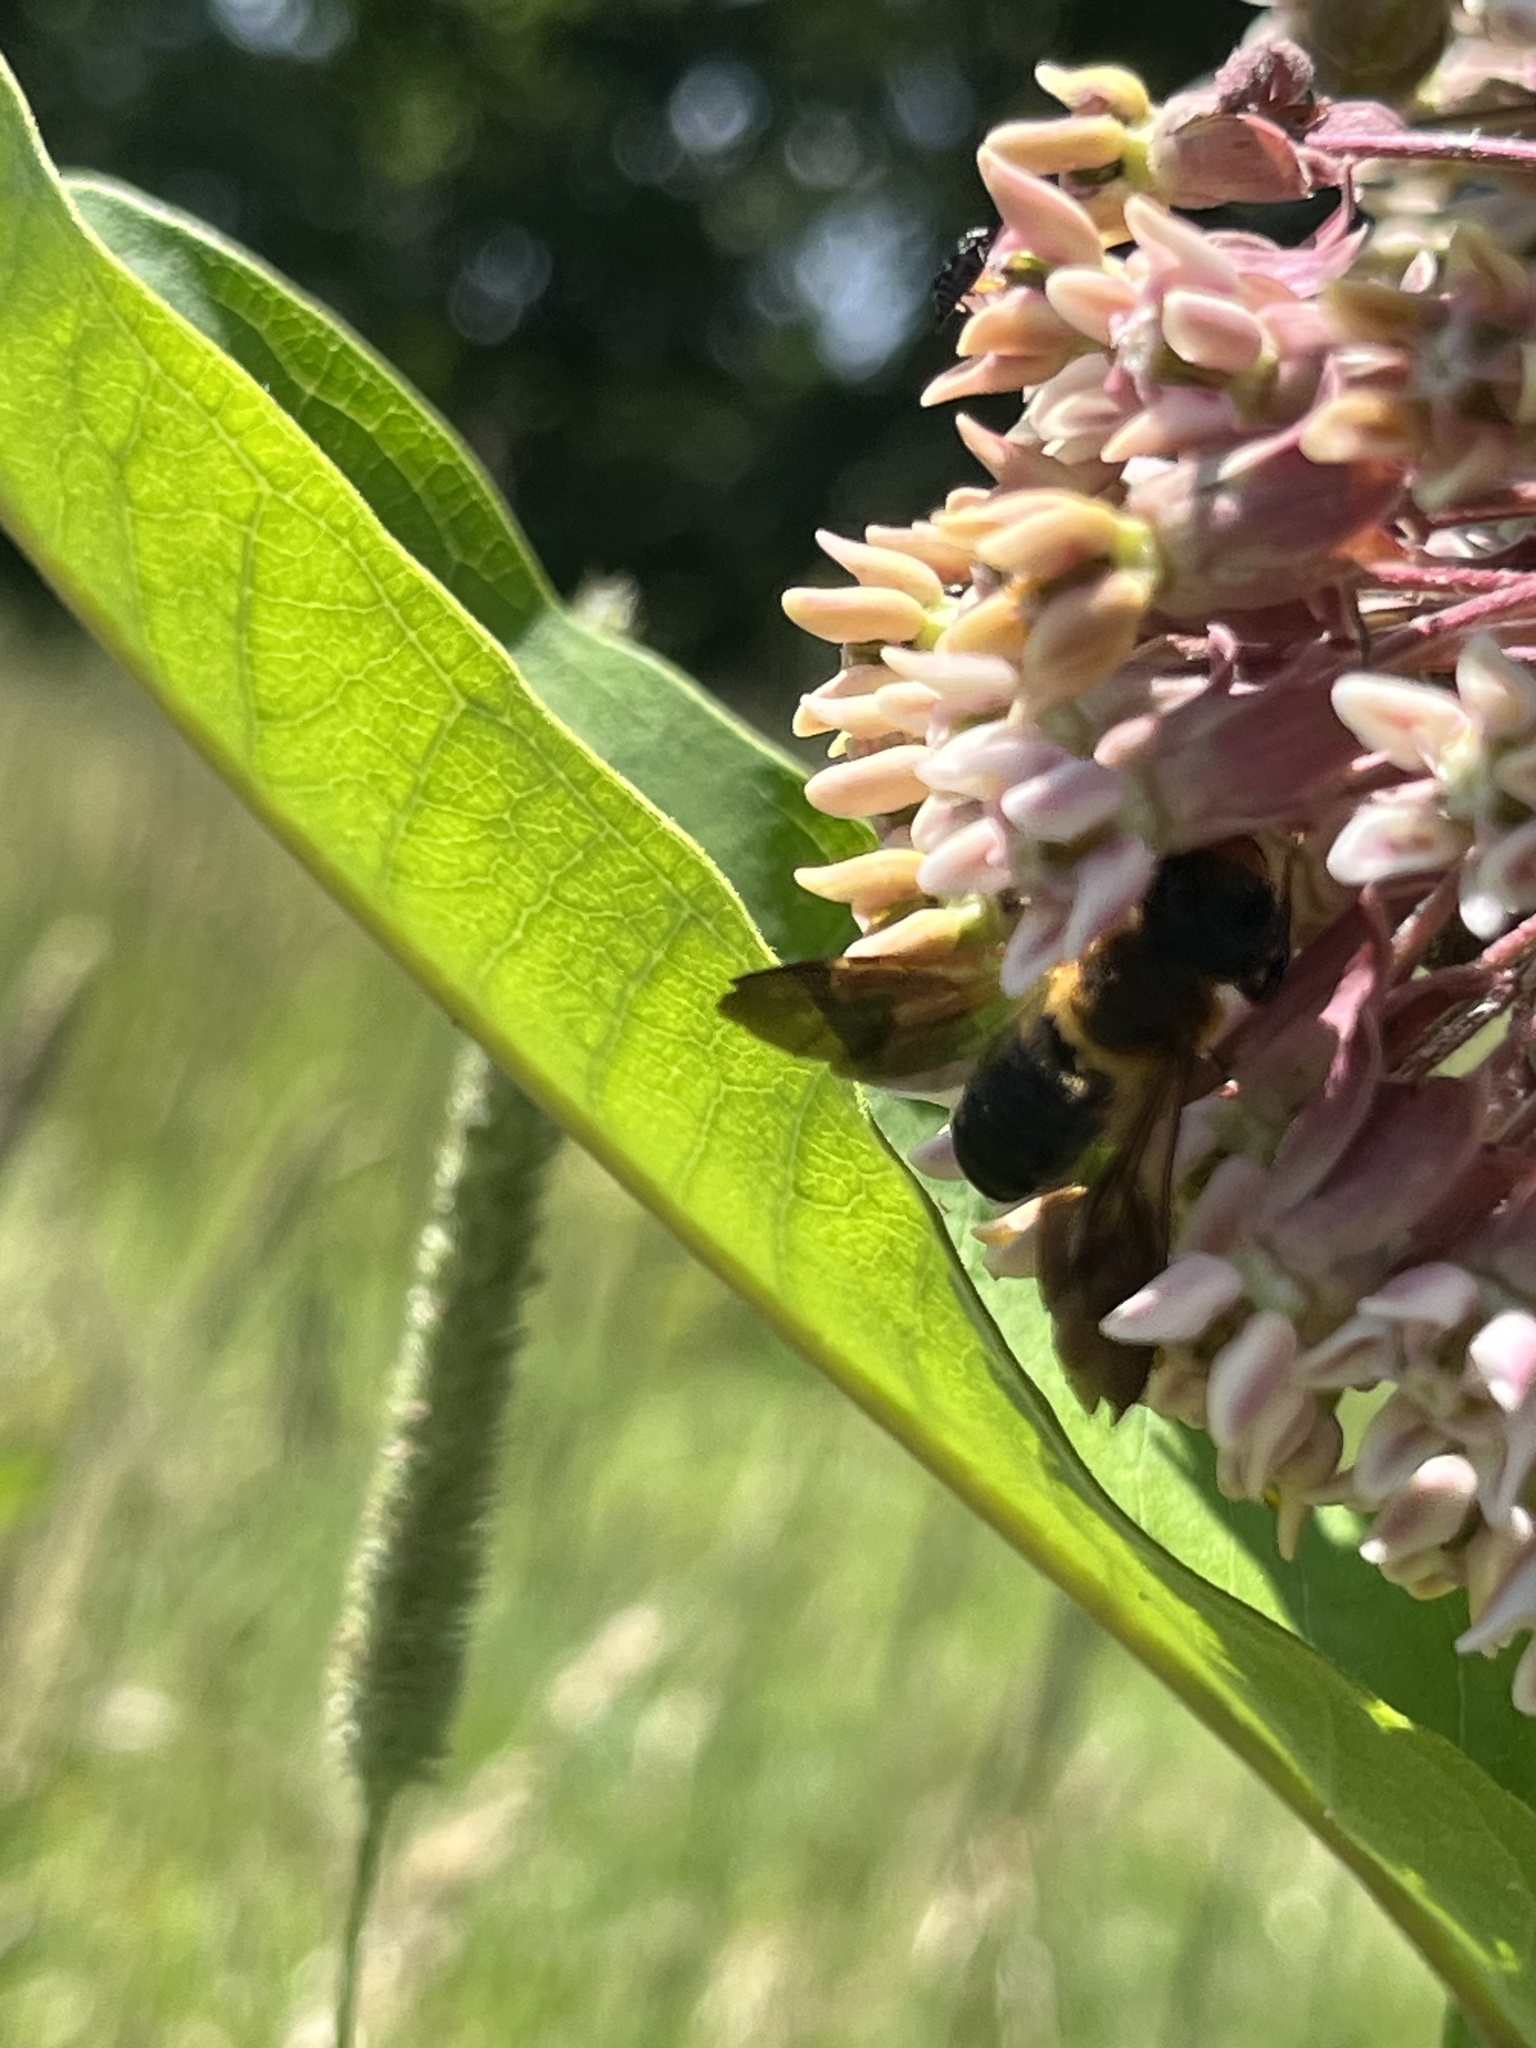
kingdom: Animalia
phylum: Arthropoda
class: Insecta
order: Hymenoptera
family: Megachilidae
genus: Megachile
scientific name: Megachile sculpturalis
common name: Sculptured resin bee
